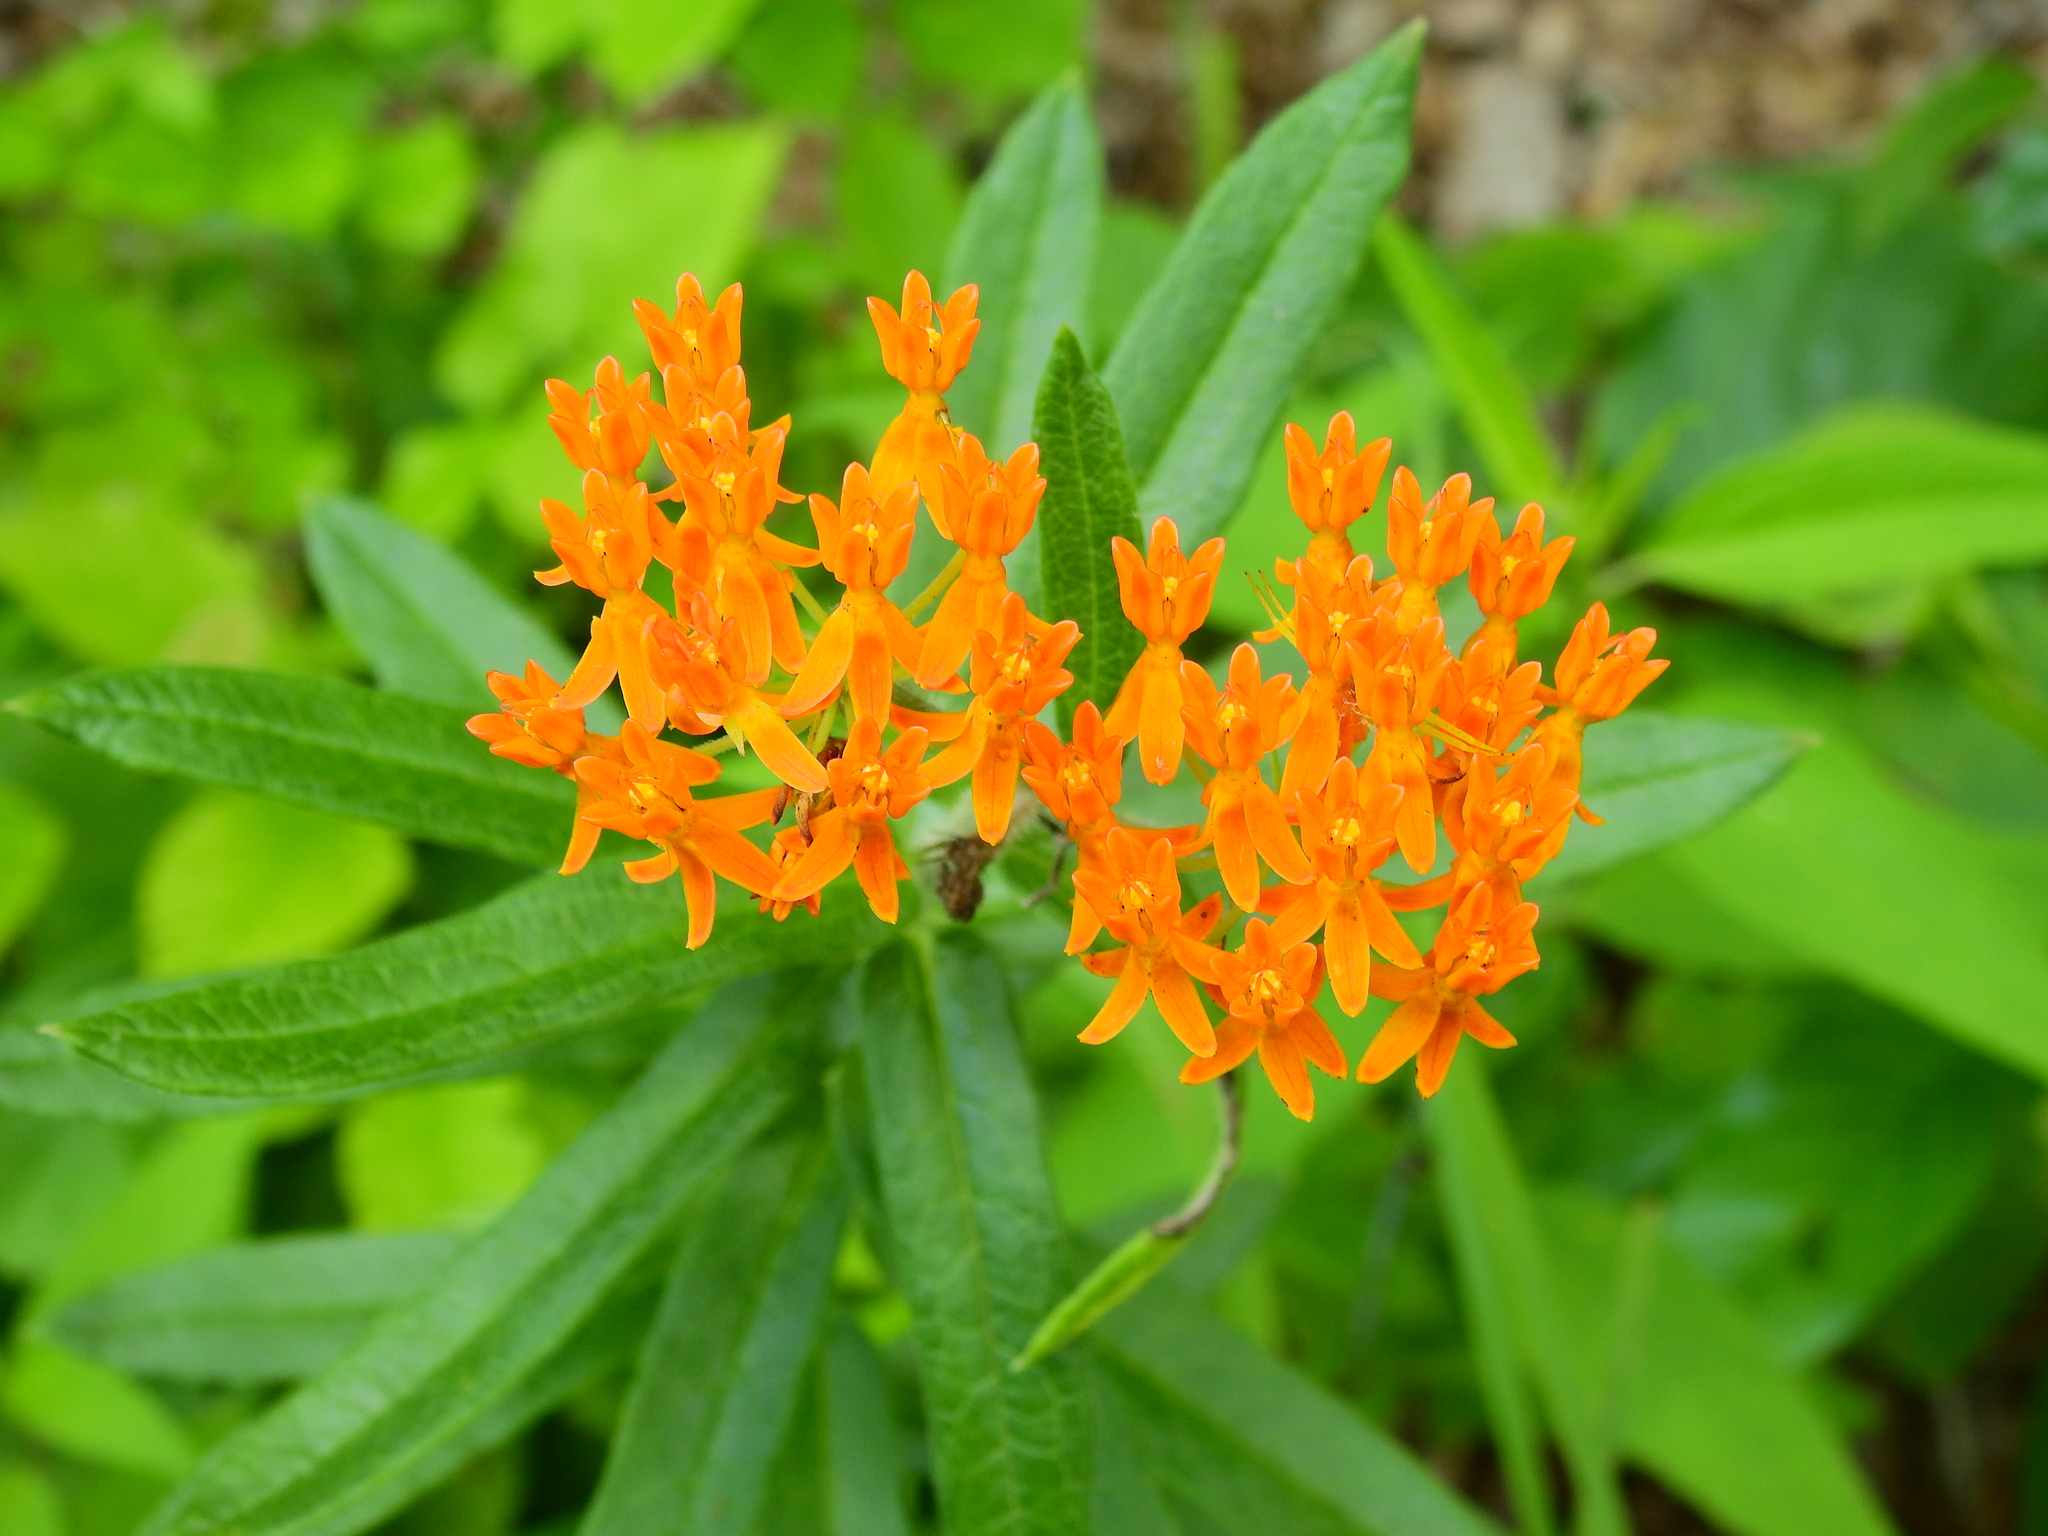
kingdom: Plantae
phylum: Tracheophyta
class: Magnoliopsida
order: Gentianales
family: Apocynaceae
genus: Asclepias
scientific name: Asclepias tuberosa
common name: Butterfly milkweed
